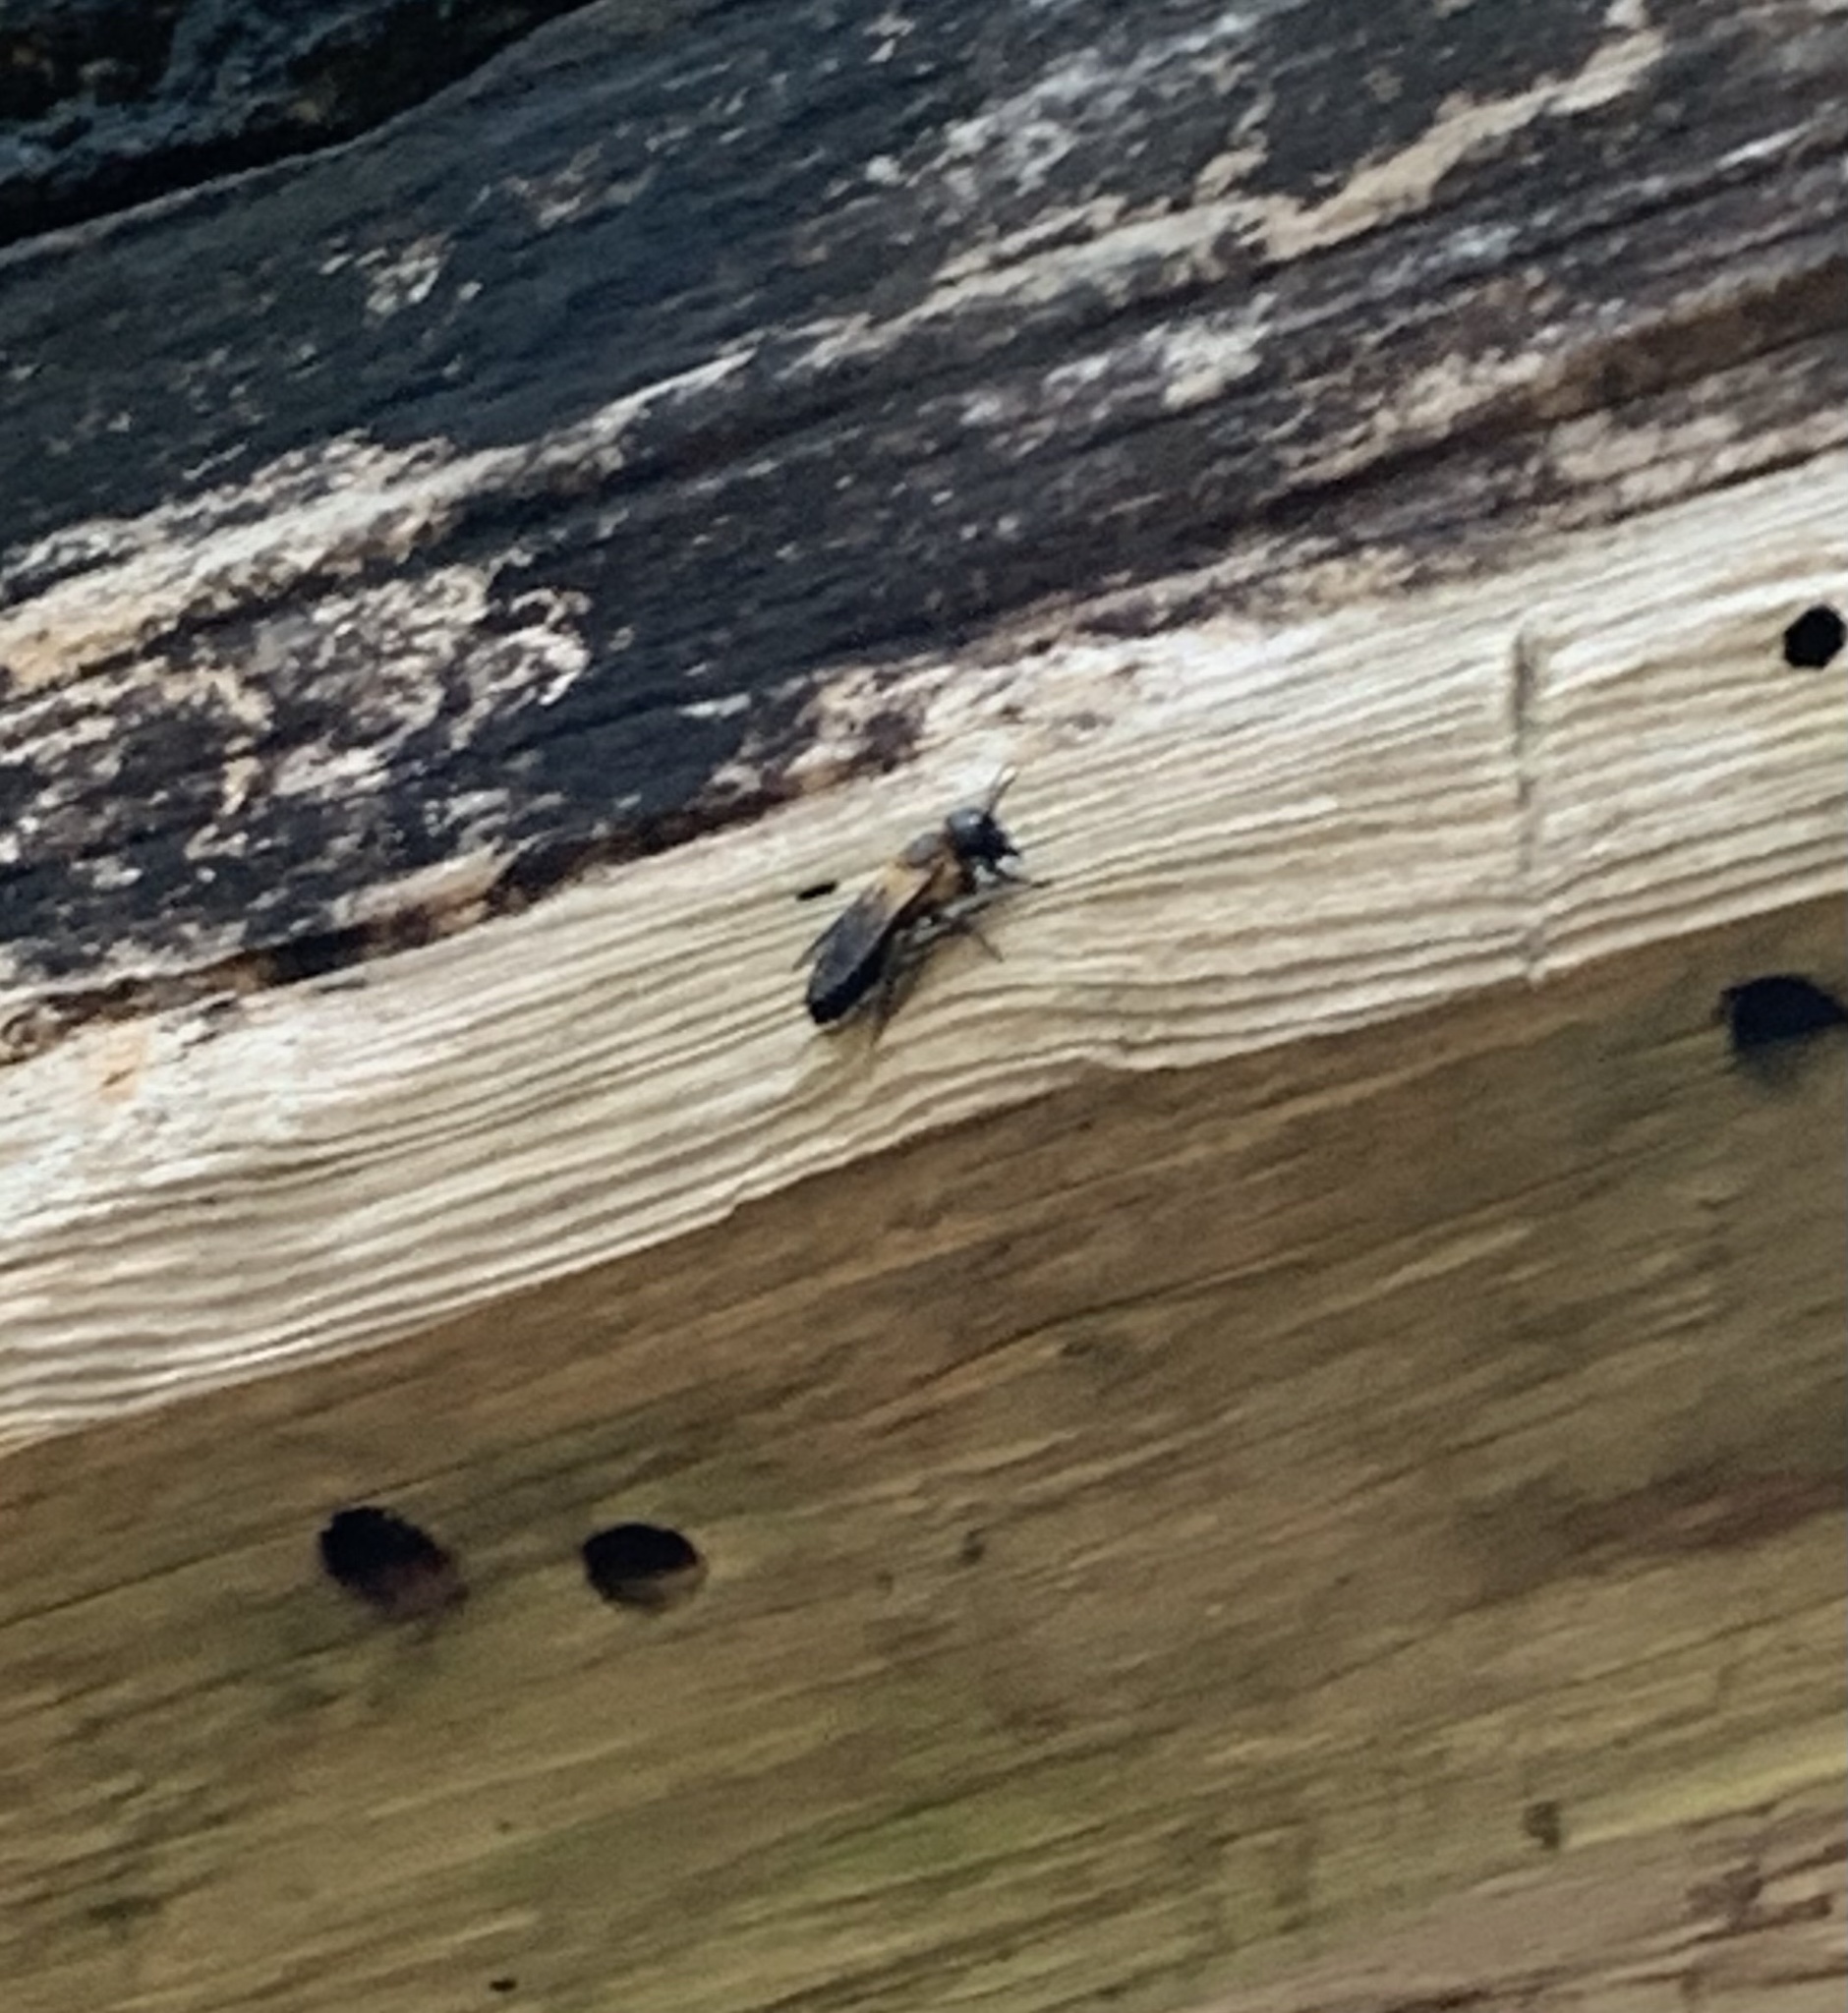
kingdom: Animalia
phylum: Arthropoda
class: Insecta
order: Hymenoptera
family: Megachilidae
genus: Megachile
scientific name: Megachile sculpturalis
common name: Sculptured resin bee
